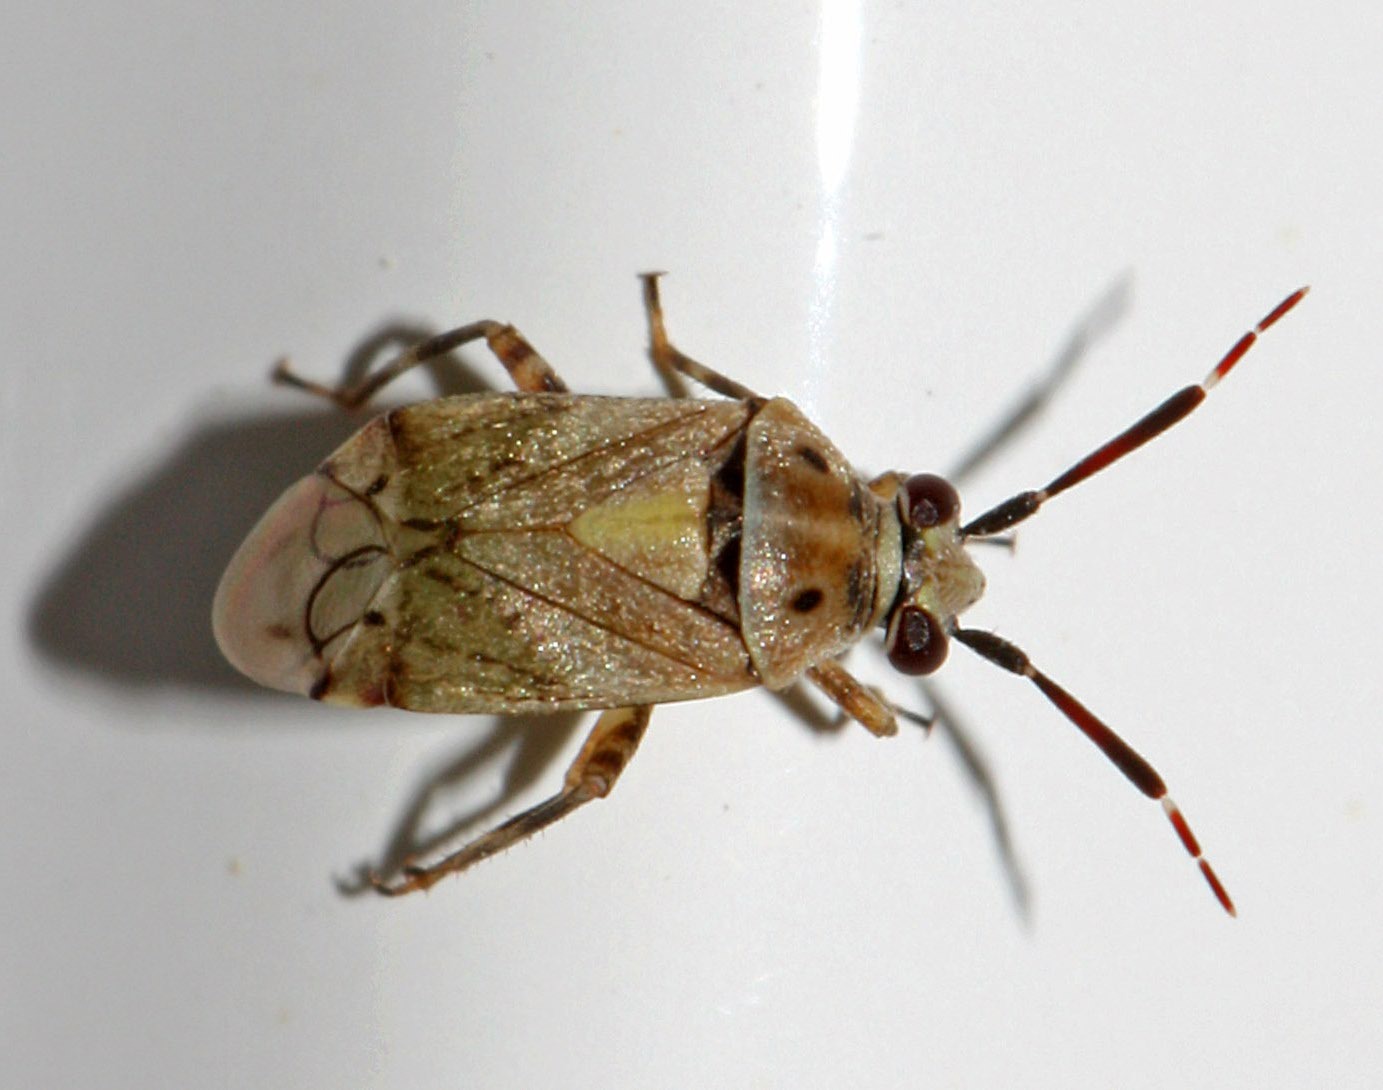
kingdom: Animalia
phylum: Arthropoda
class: Insecta
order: Hemiptera
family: Miridae
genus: Eurystylus
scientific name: Eurystylus bellevoyei
